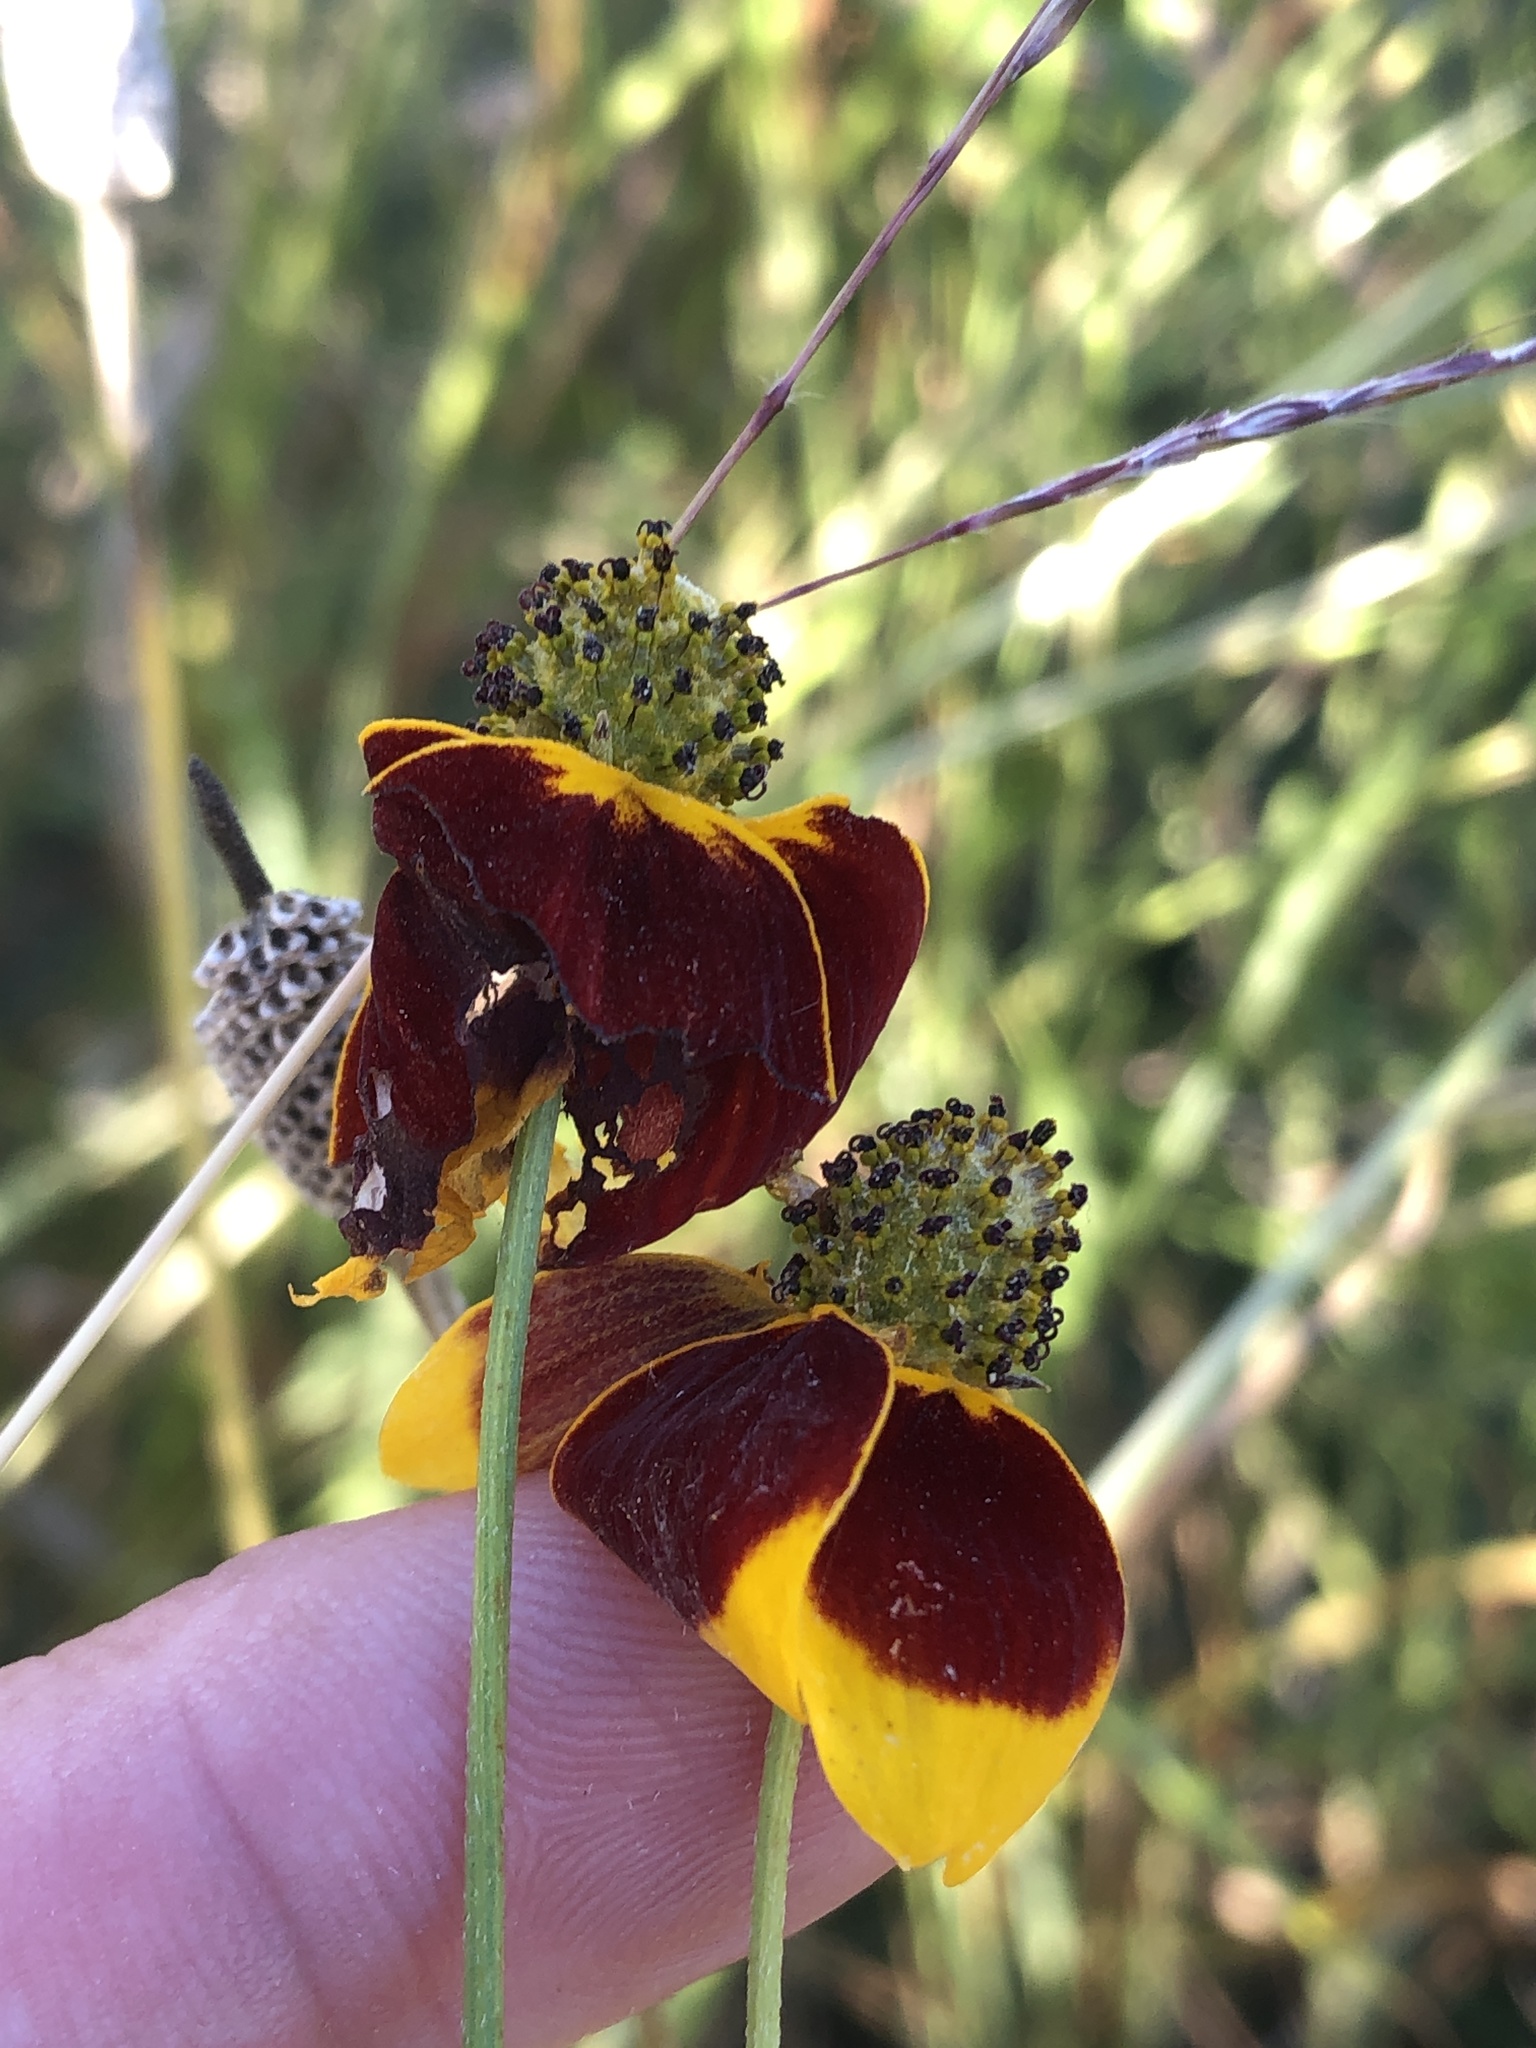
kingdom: Plantae
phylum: Tracheophyta
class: Magnoliopsida
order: Asterales
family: Asteraceae
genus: Ratibida
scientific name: Ratibida columnifera
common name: Prairie coneflower
